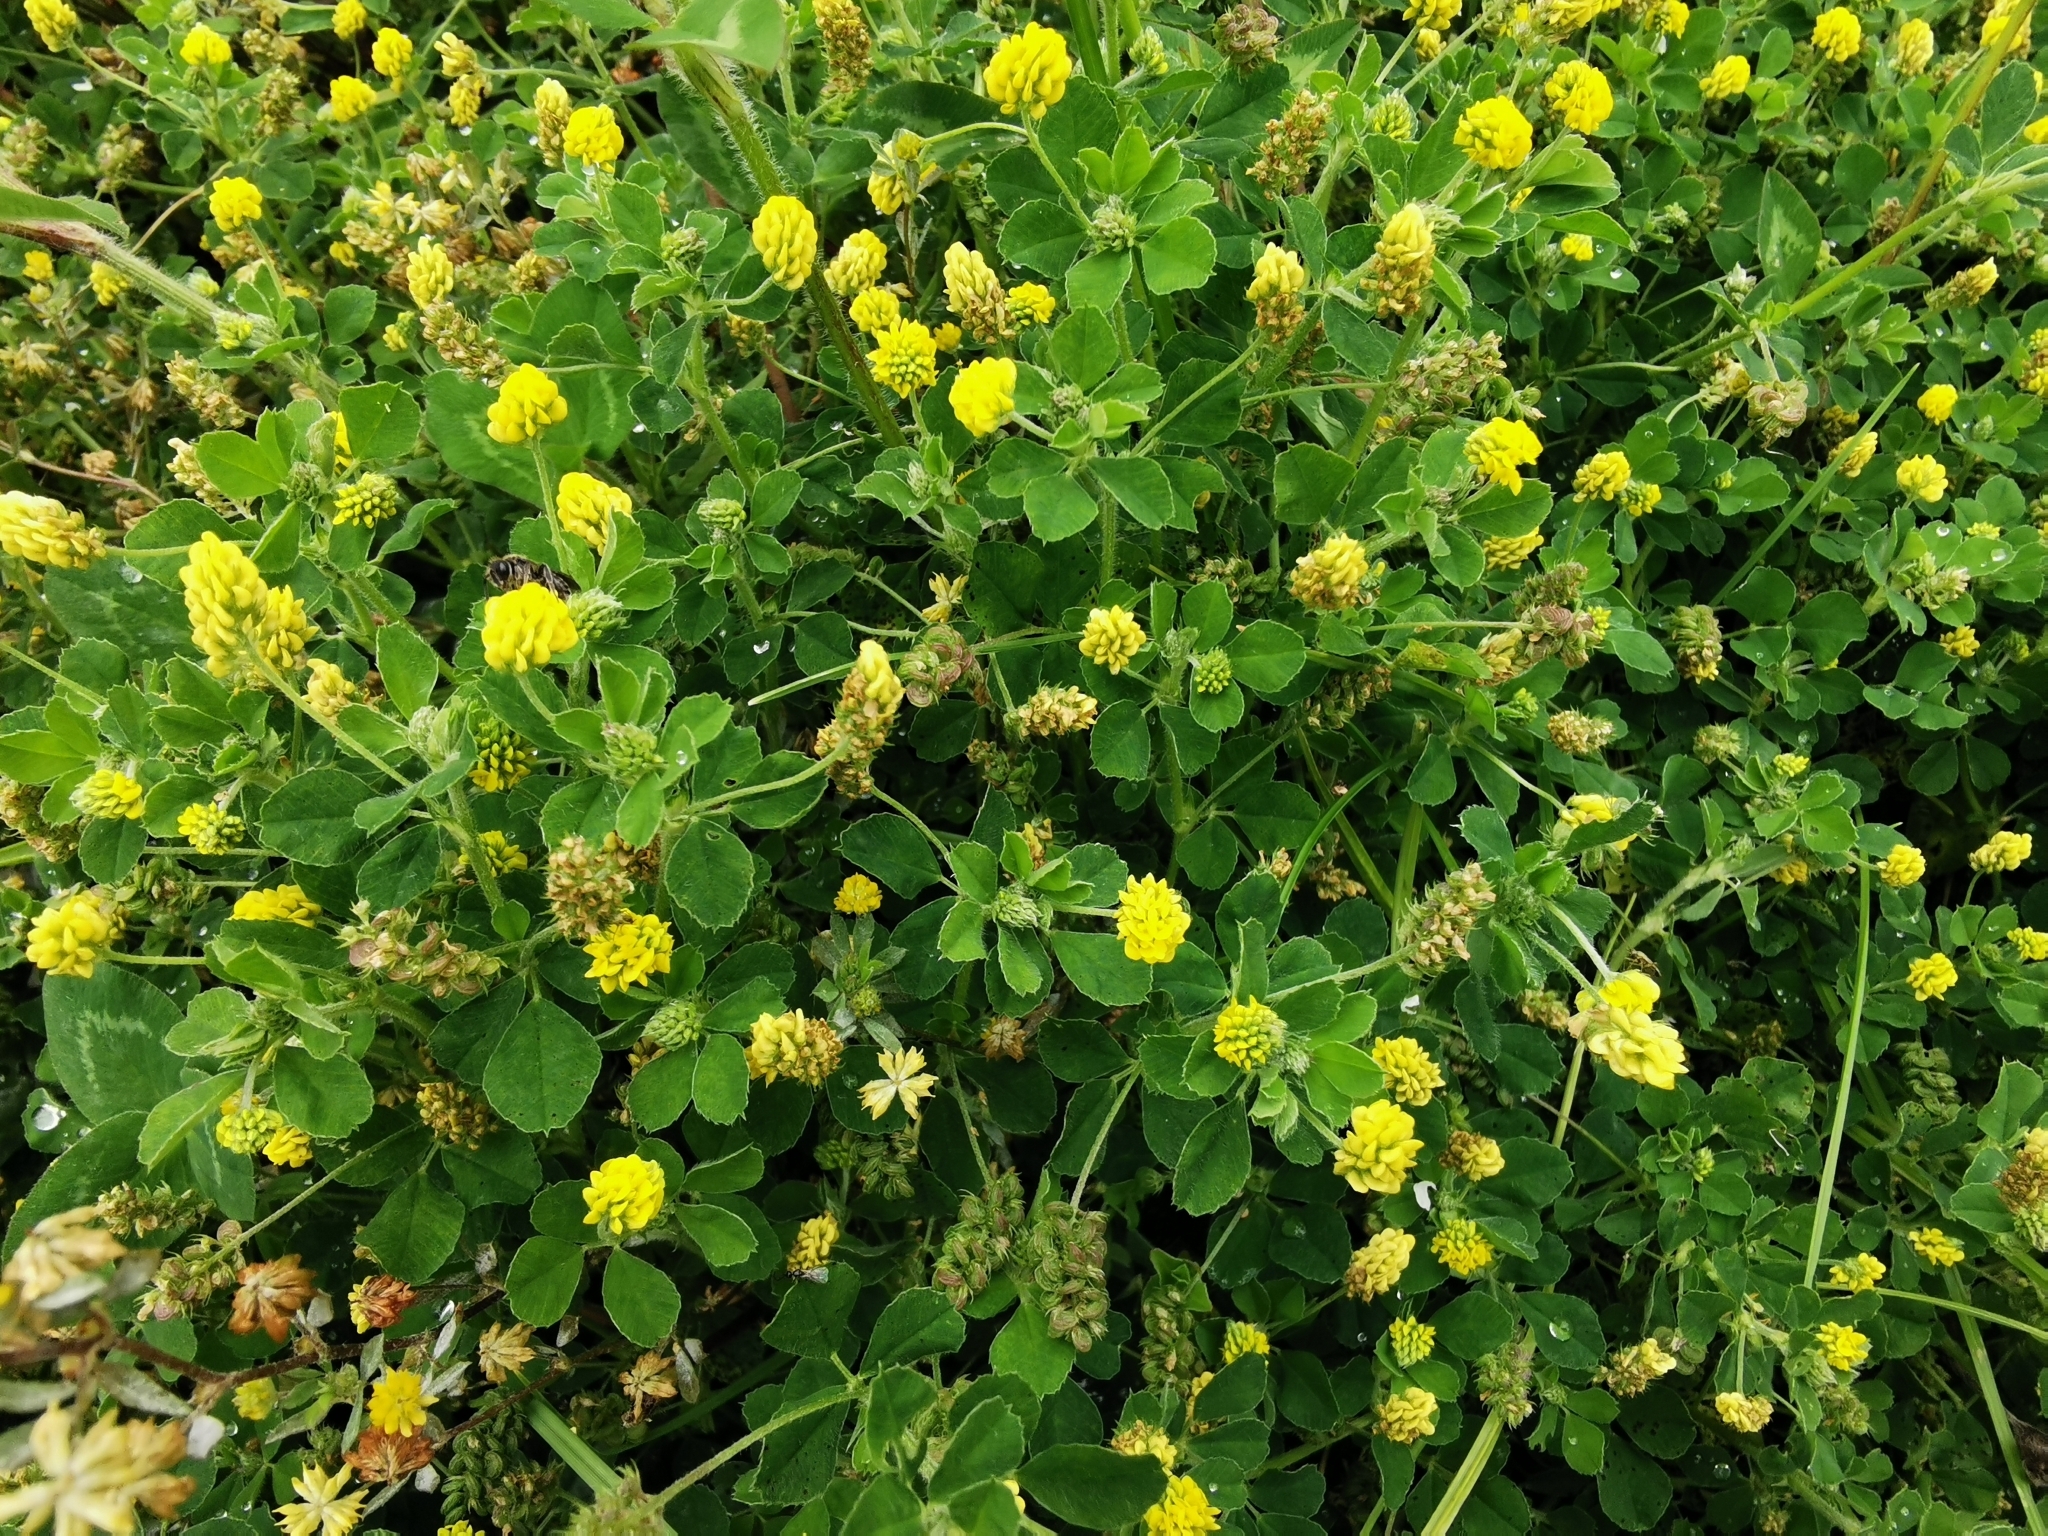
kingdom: Plantae
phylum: Tracheophyta
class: Magnoliopsida
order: Fabales
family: Fabaceae
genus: Medicago
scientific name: Medicago lupulina
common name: Black medick
